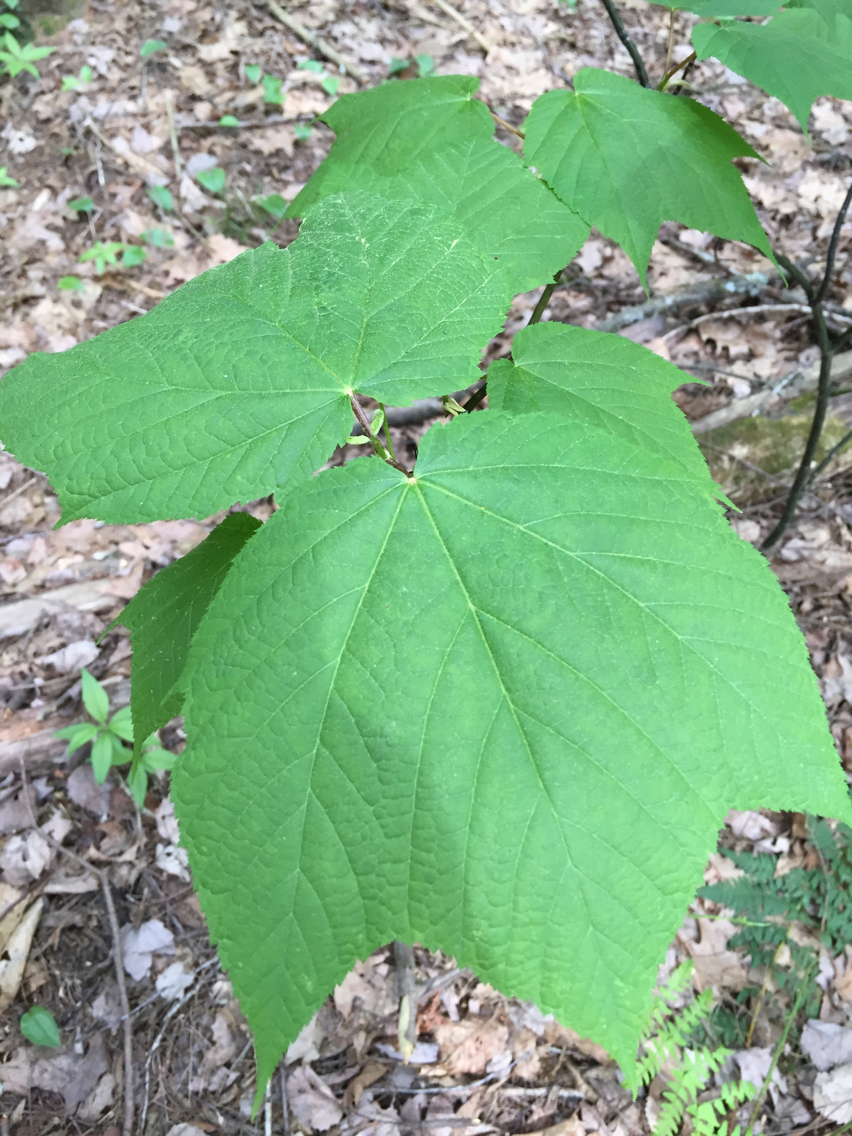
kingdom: Plantae
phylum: Tracheophyta
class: Magnoliopsida
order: Sapindales
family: Sapindaceae
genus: Acer
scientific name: Acer pensylvanicum
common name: Moosewood
